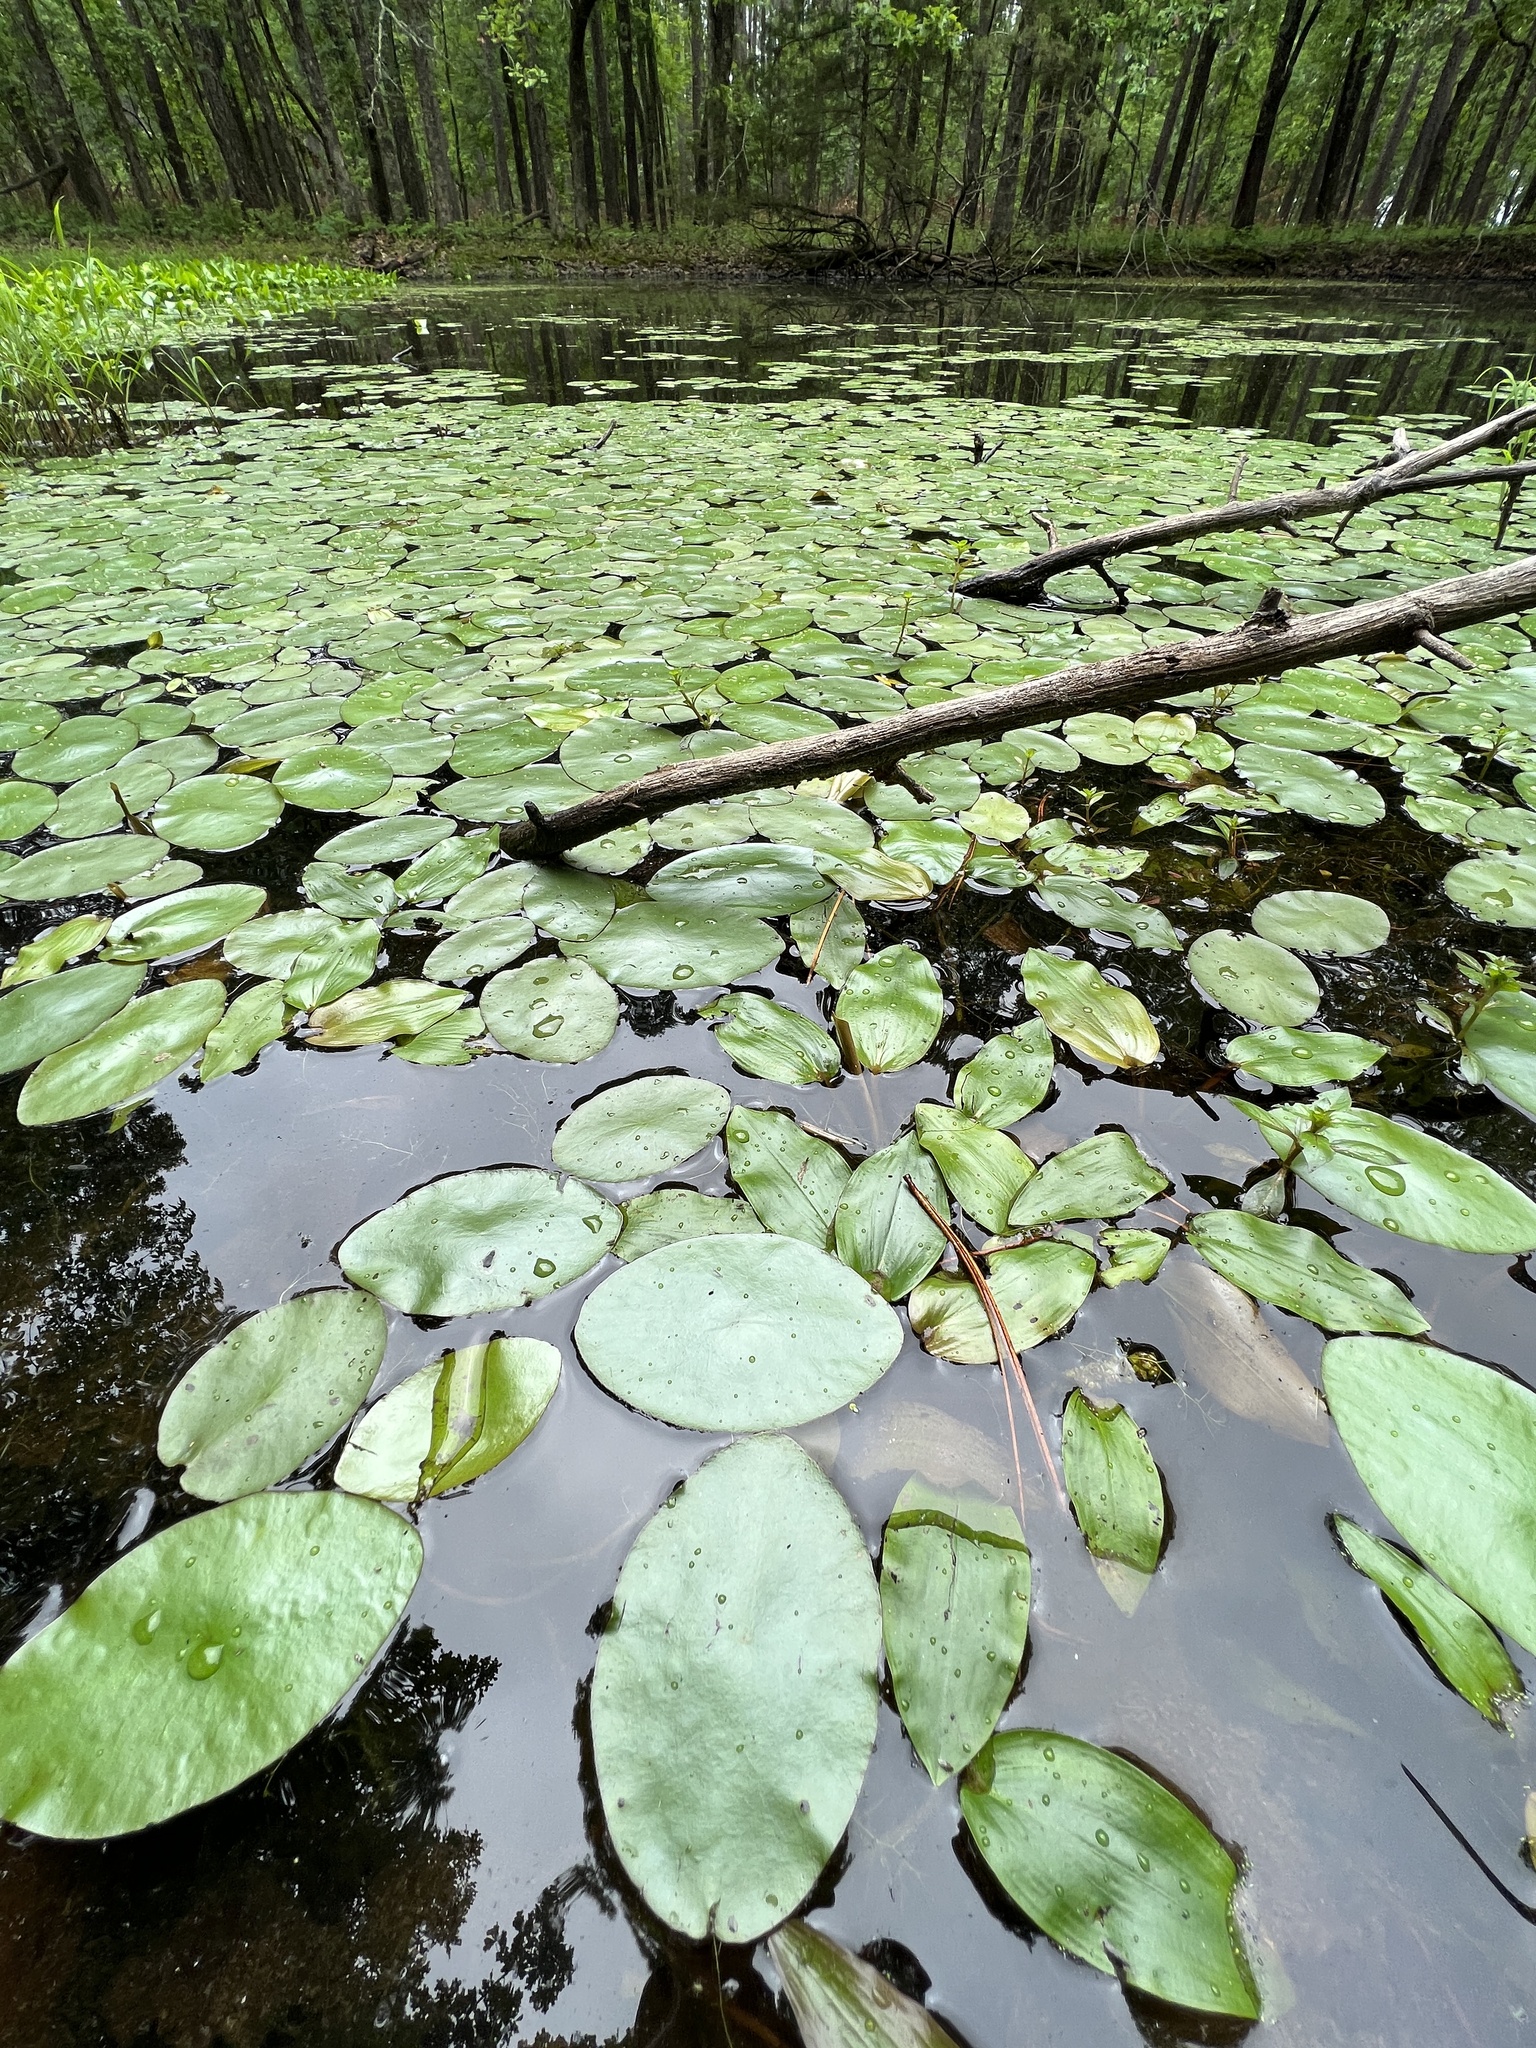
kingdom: Plantae
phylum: Tracheophyta
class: Magnoliopsida
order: Nymphaeales
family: Cabombaceae
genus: Brasenia
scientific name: Brasenia schreberi
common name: Water-shield
